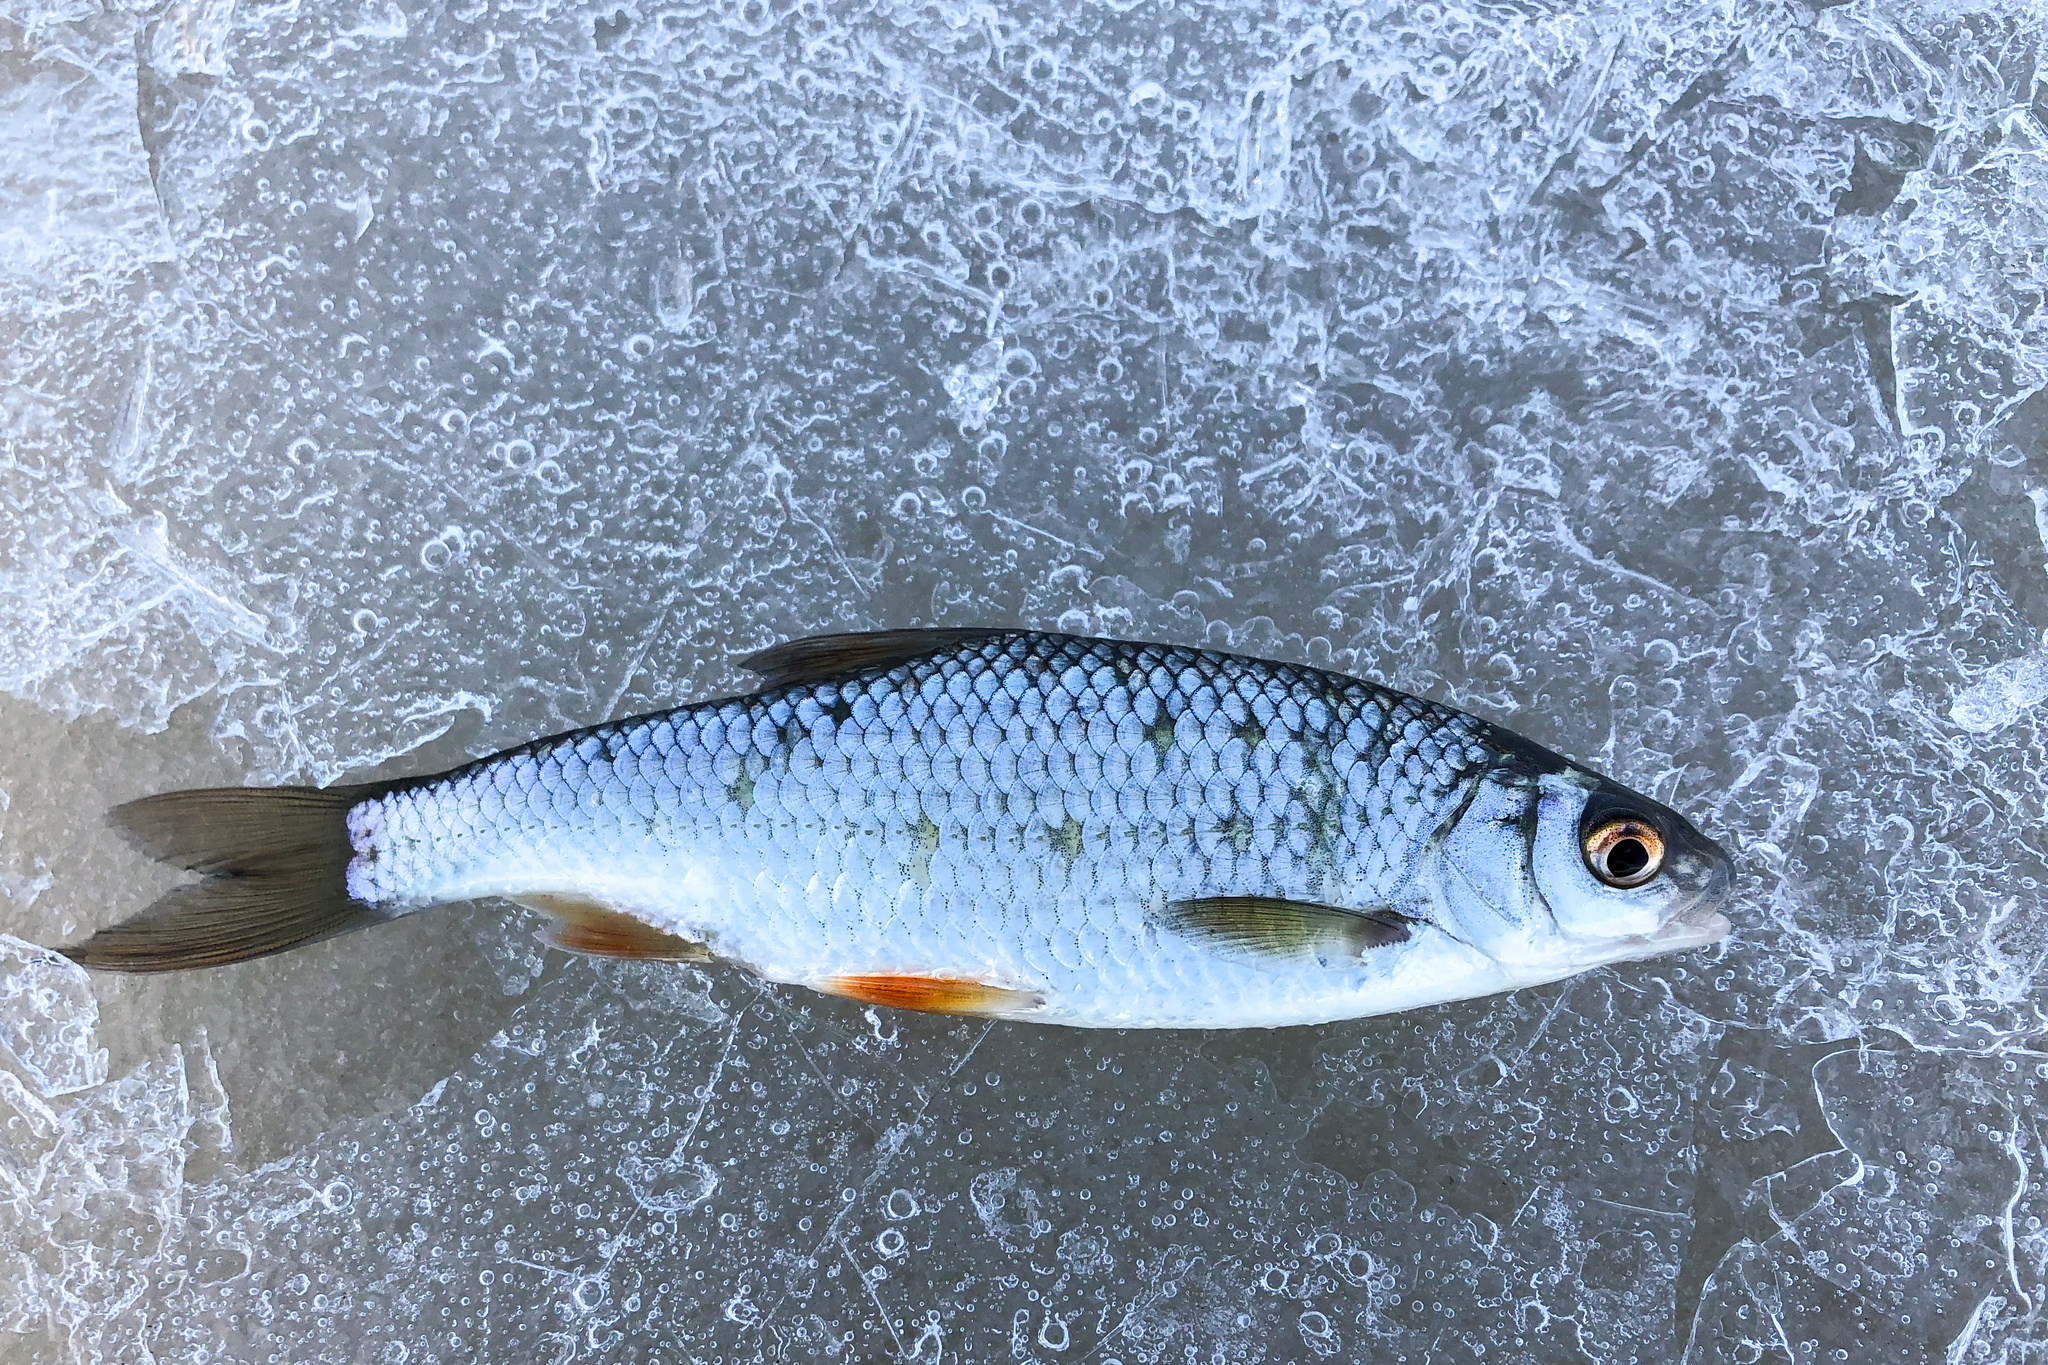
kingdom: Animalia
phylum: Chordata
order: Cypriniformes
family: Cyprinidae
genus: Rutilus
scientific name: Rutilus rutilus
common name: Roach
